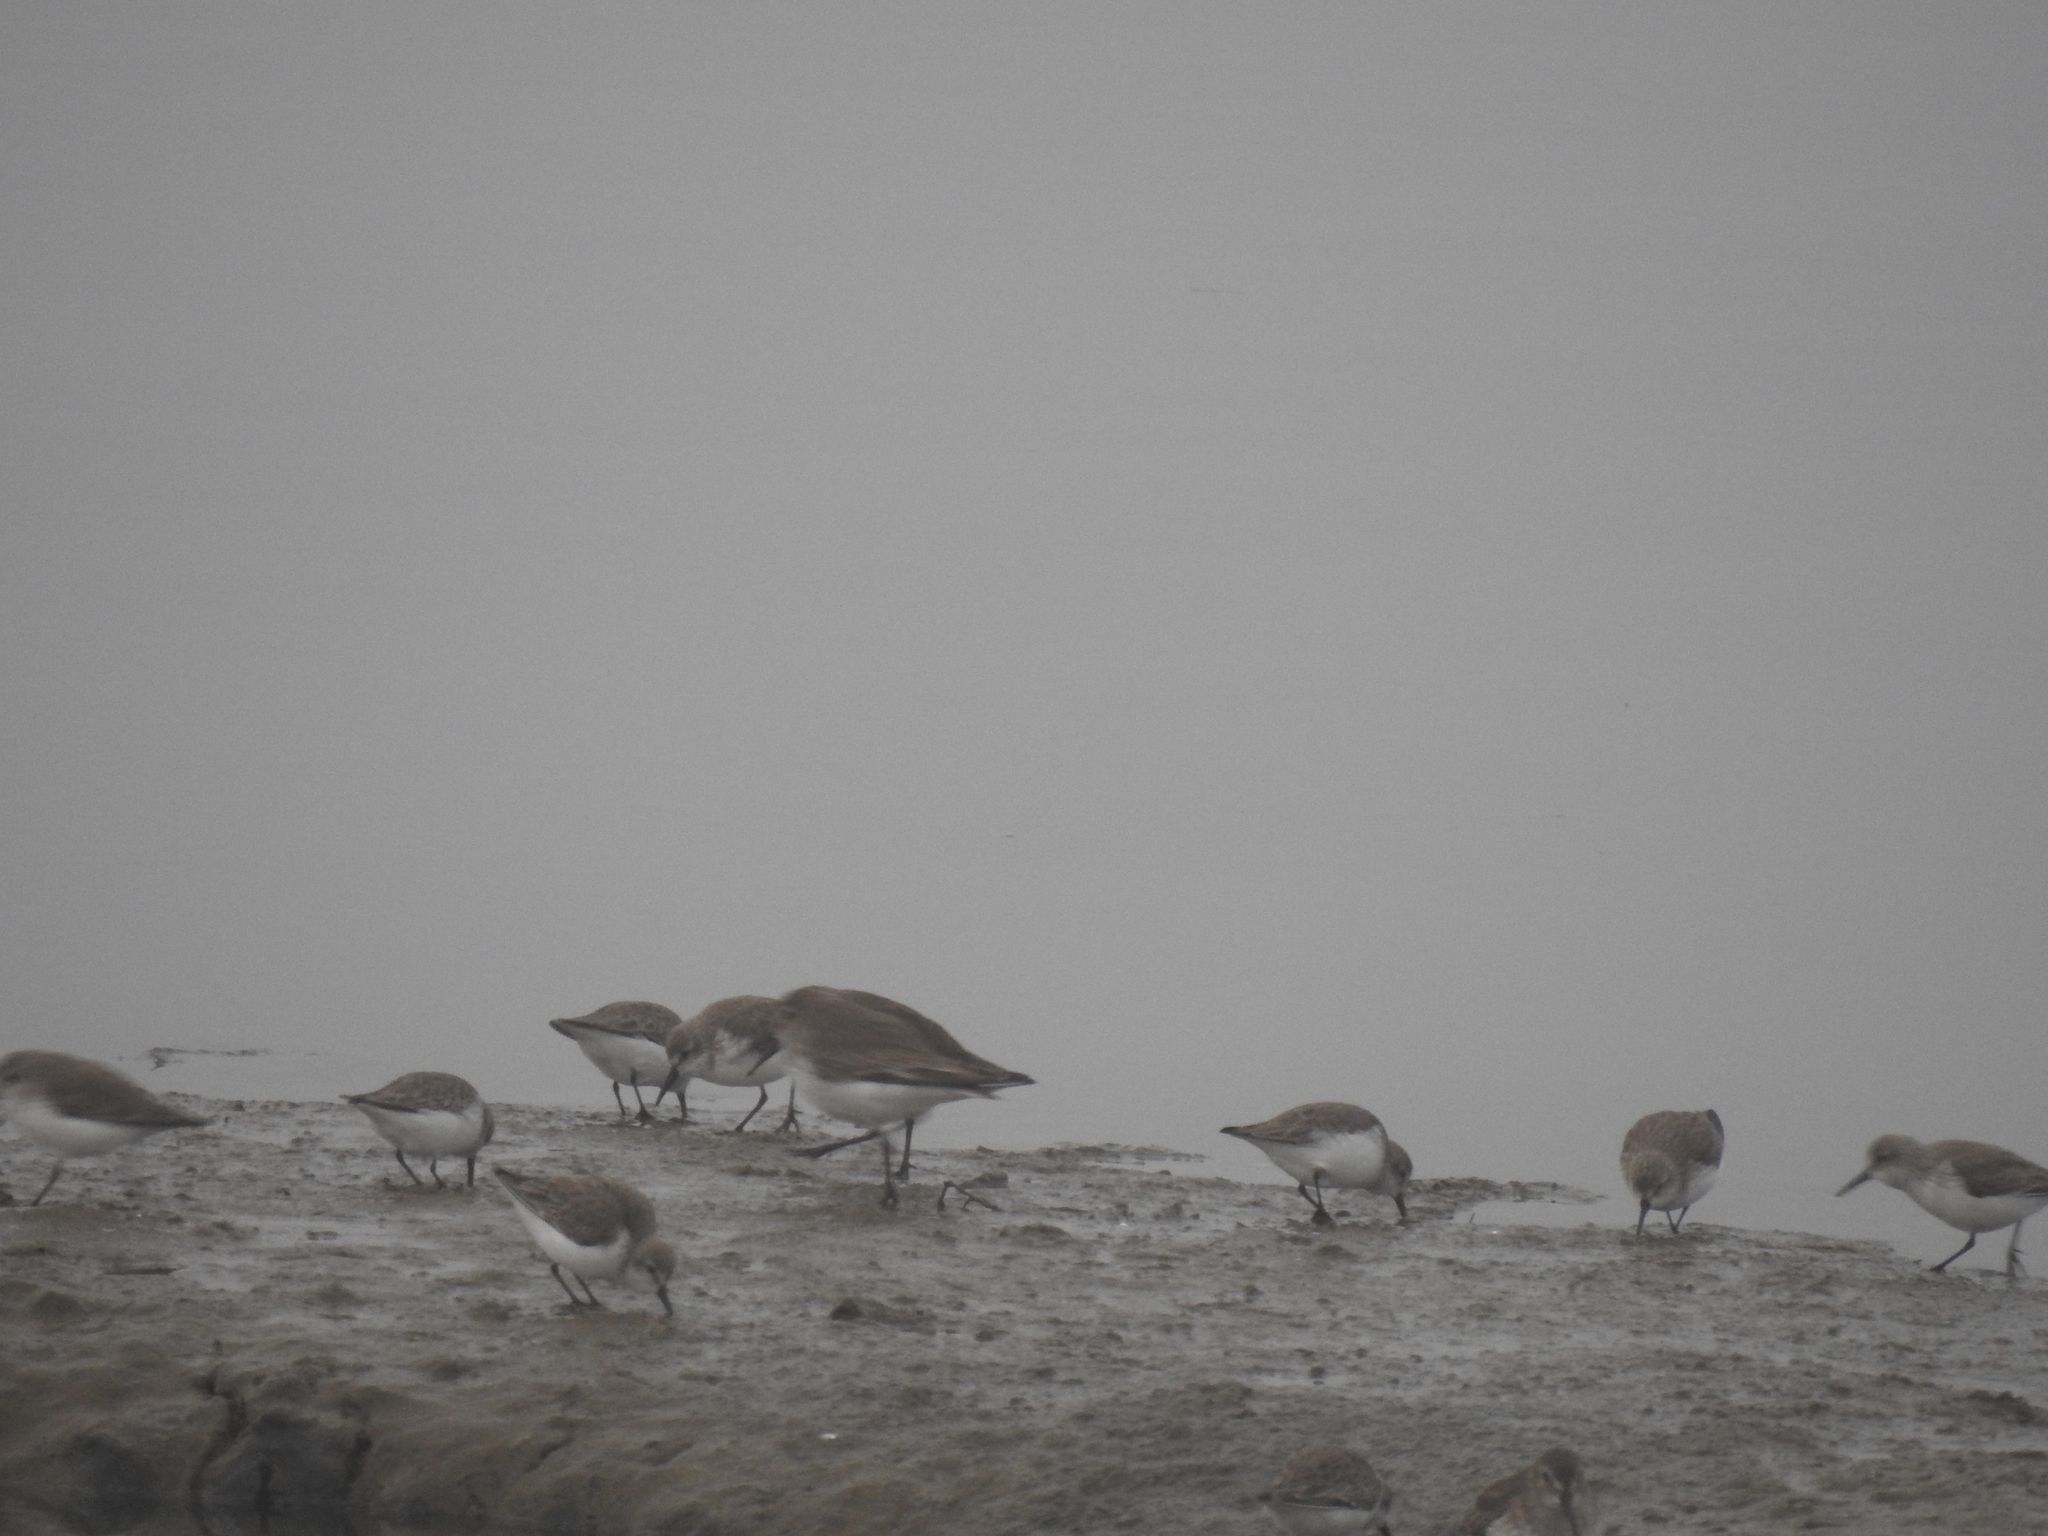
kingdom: Animalia
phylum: Chordata
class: Aves
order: Charadriiformes
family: Scolopacidae
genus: Calidris
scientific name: Calidris alpina
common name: Dunlin
